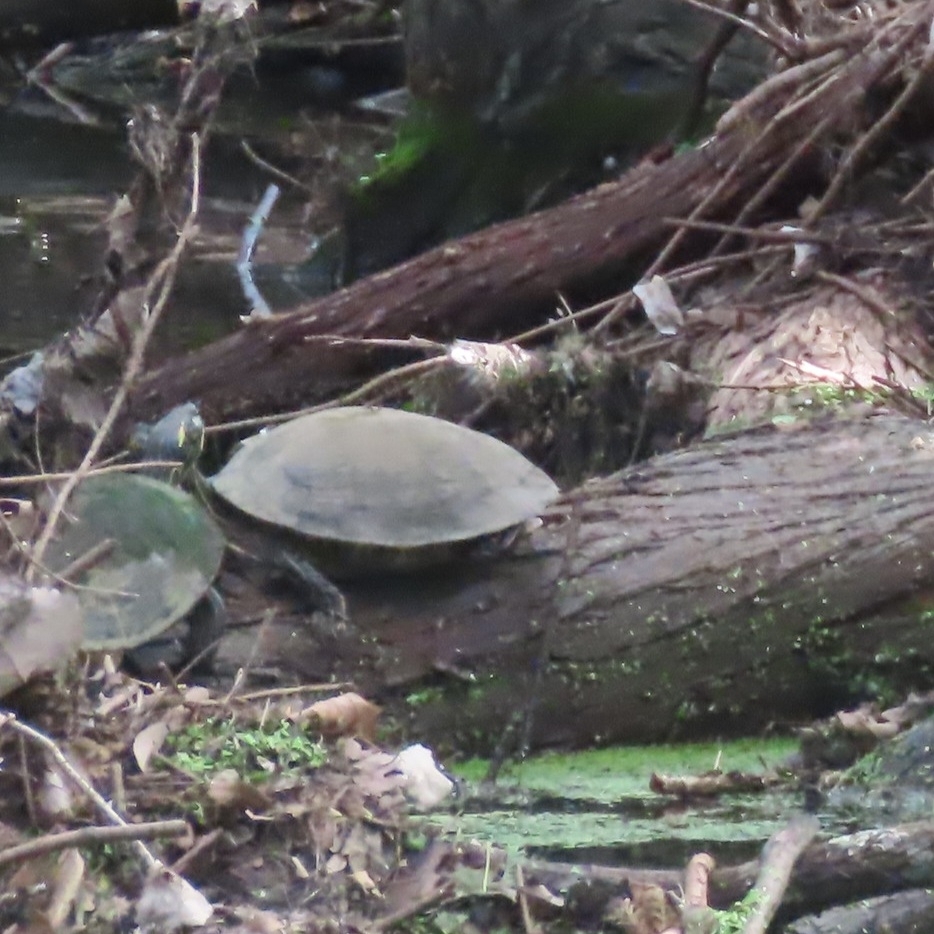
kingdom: Animalia
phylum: Chordata
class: Testudines
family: Emydidae
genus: Pseudemys
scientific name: Pseudemys texana
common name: Texas river cooter
